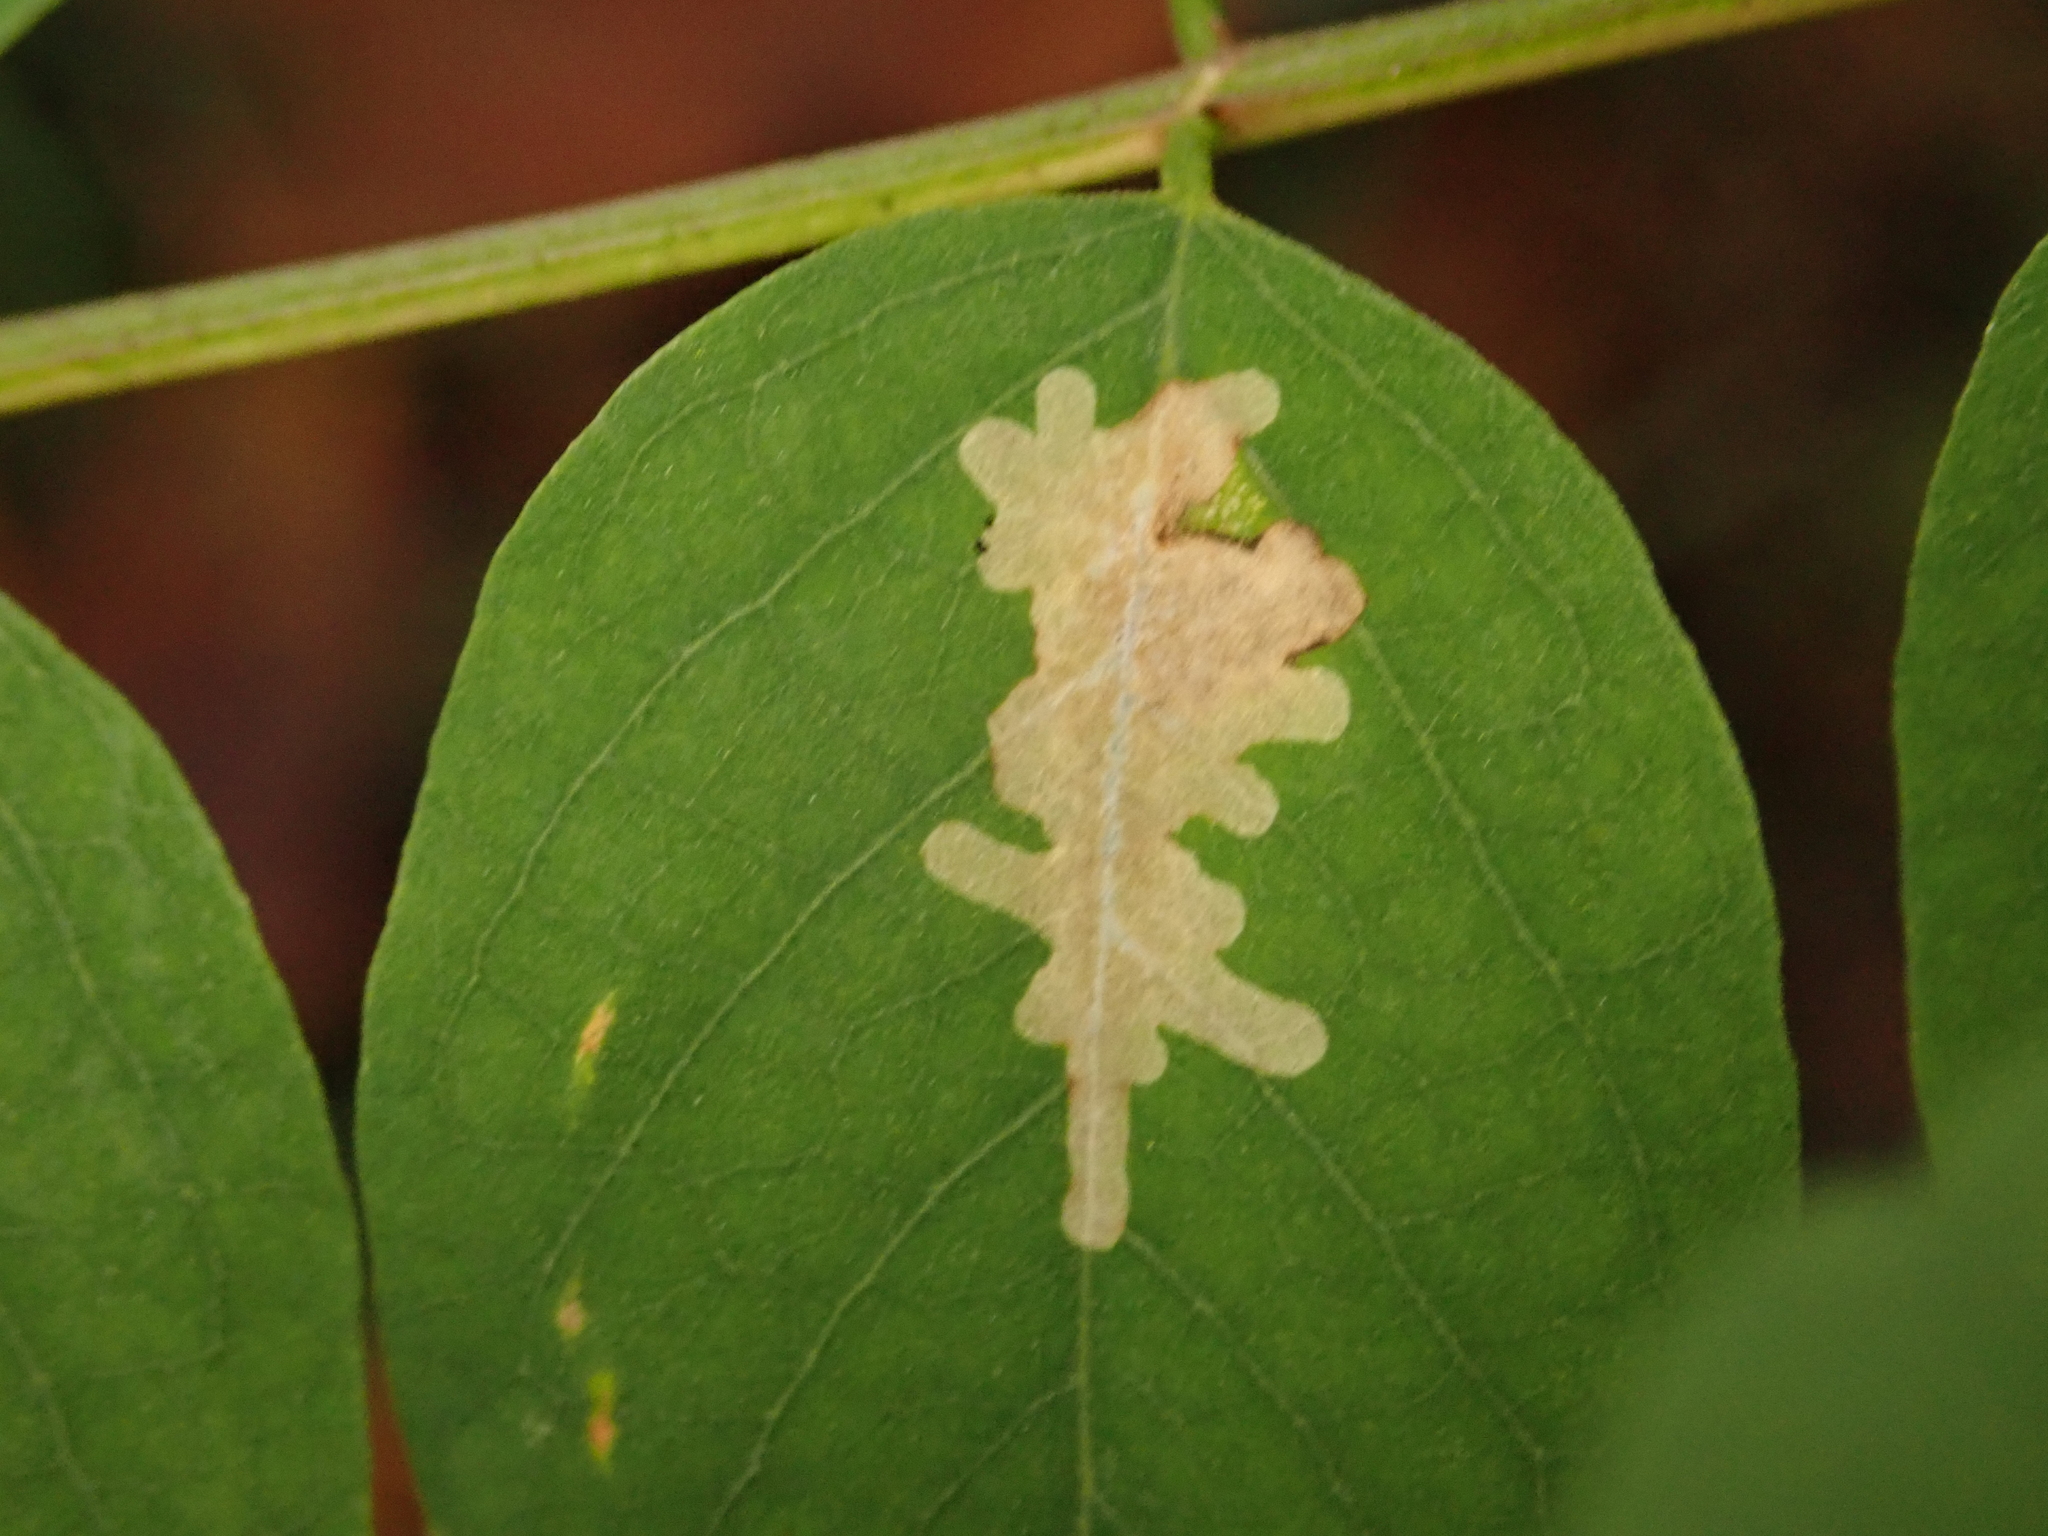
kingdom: Animalia
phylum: Arthropoda
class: Insecta
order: Lepidoptera
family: Gracillariidae
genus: Parectopa
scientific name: Parectopa robiniella
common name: Locust digitate leafminer
